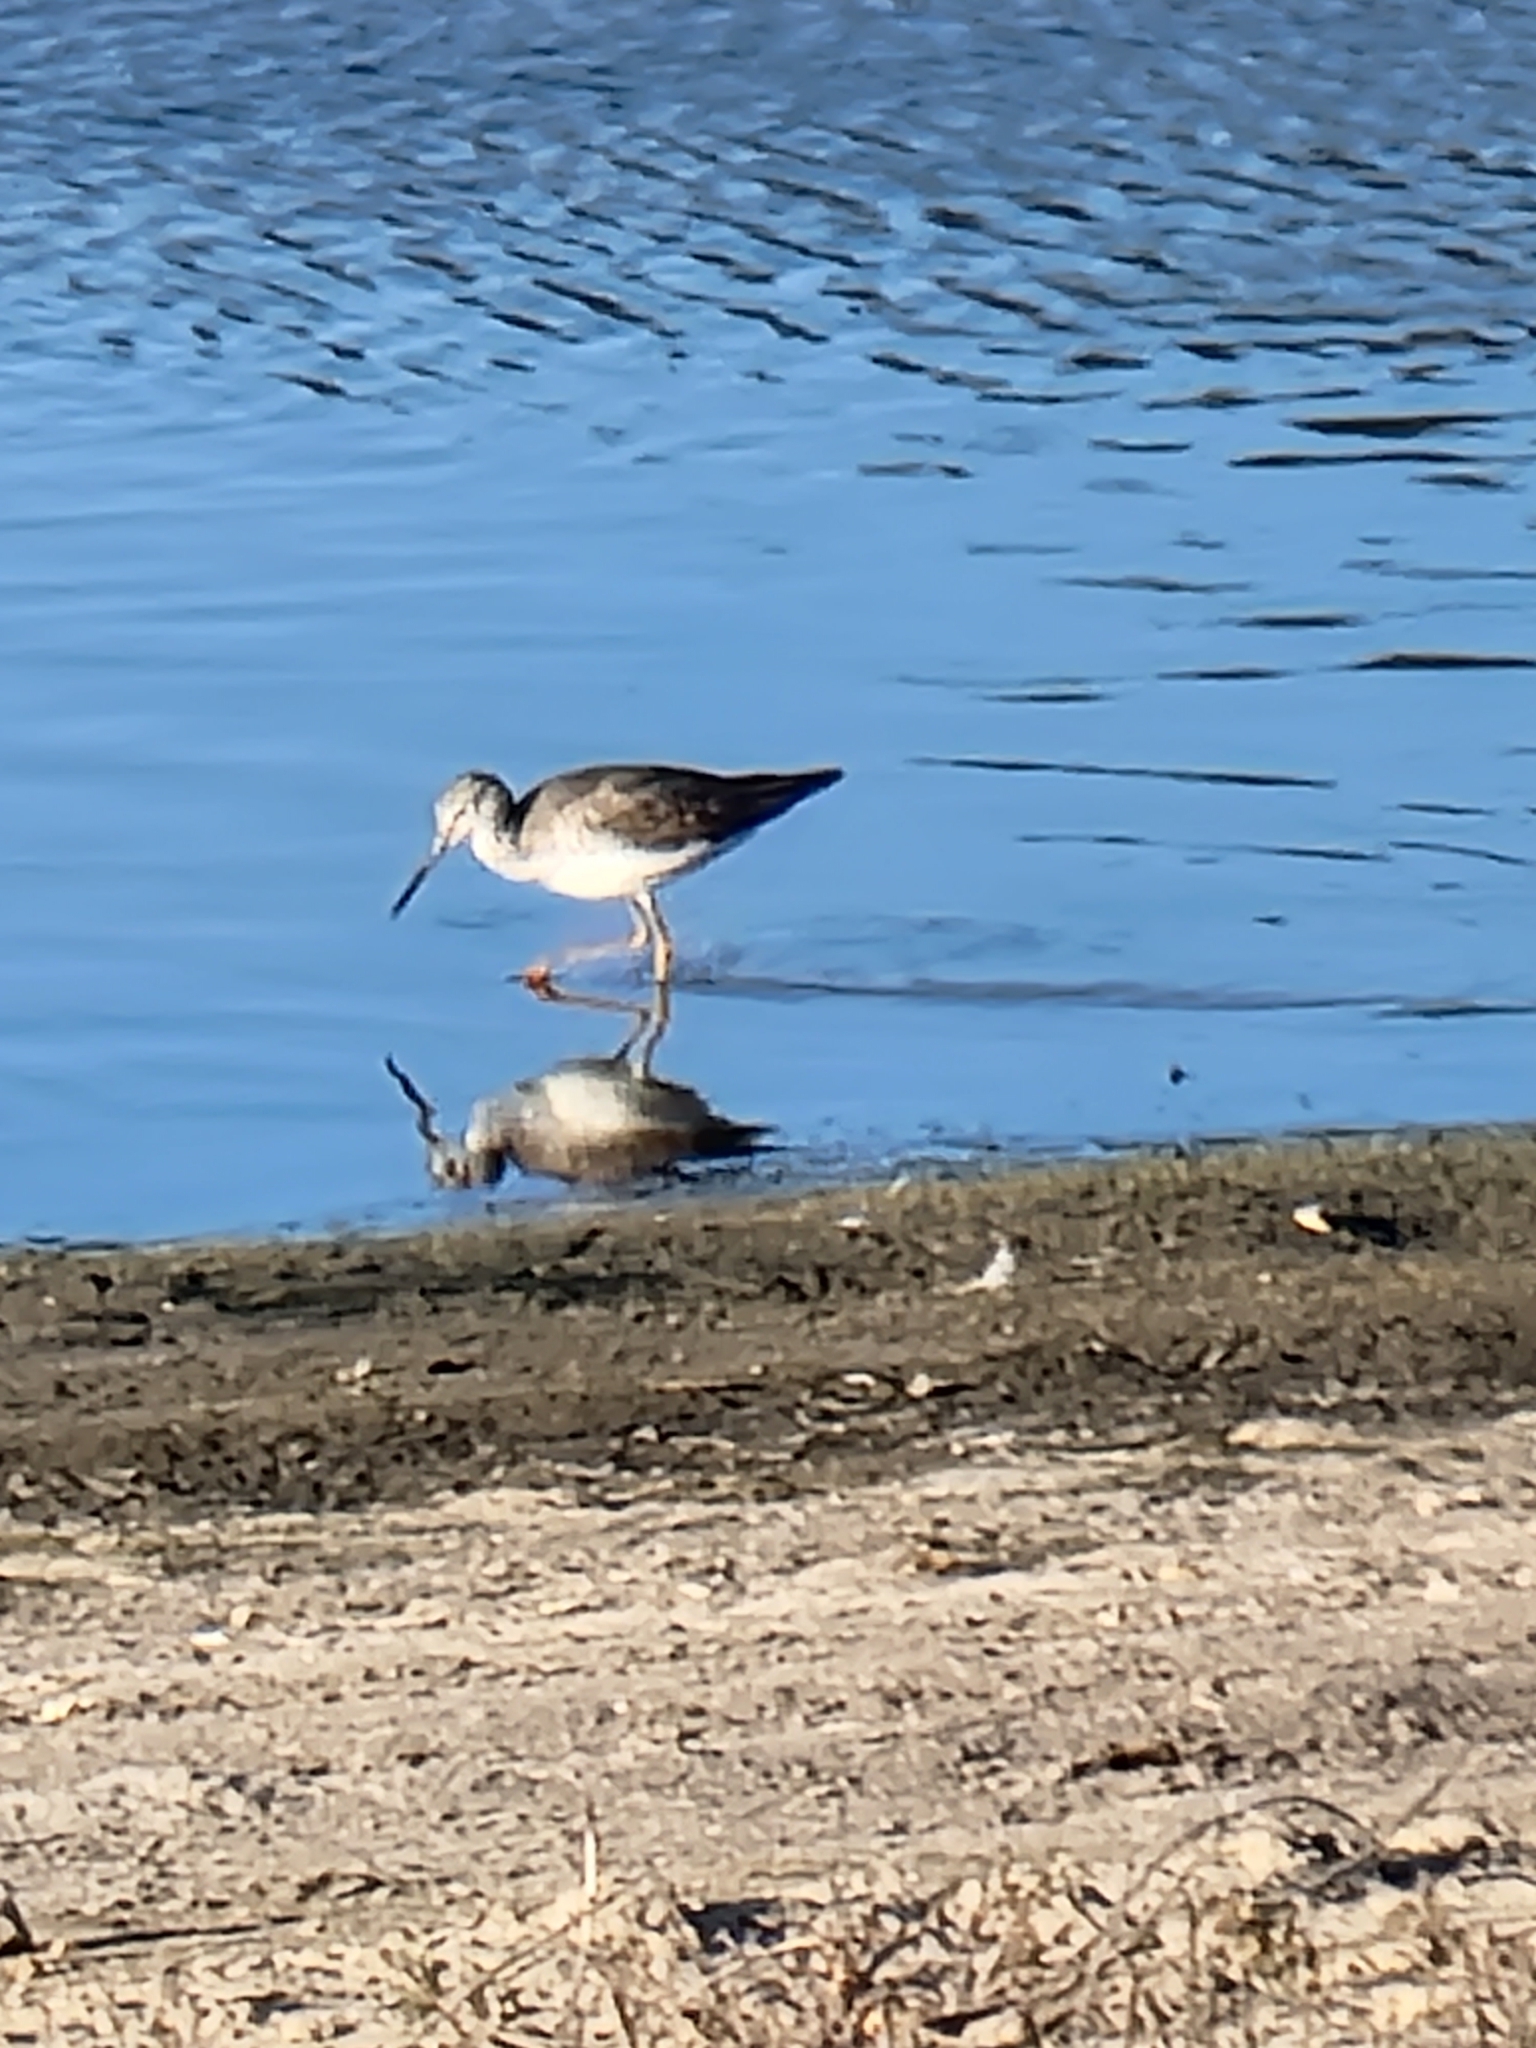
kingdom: Animalia
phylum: Chordata
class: Aves
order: Charadriiformes
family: Scolopacidae
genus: Tringa
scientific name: Tringa melanoleuca
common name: Greater yellowlegs
